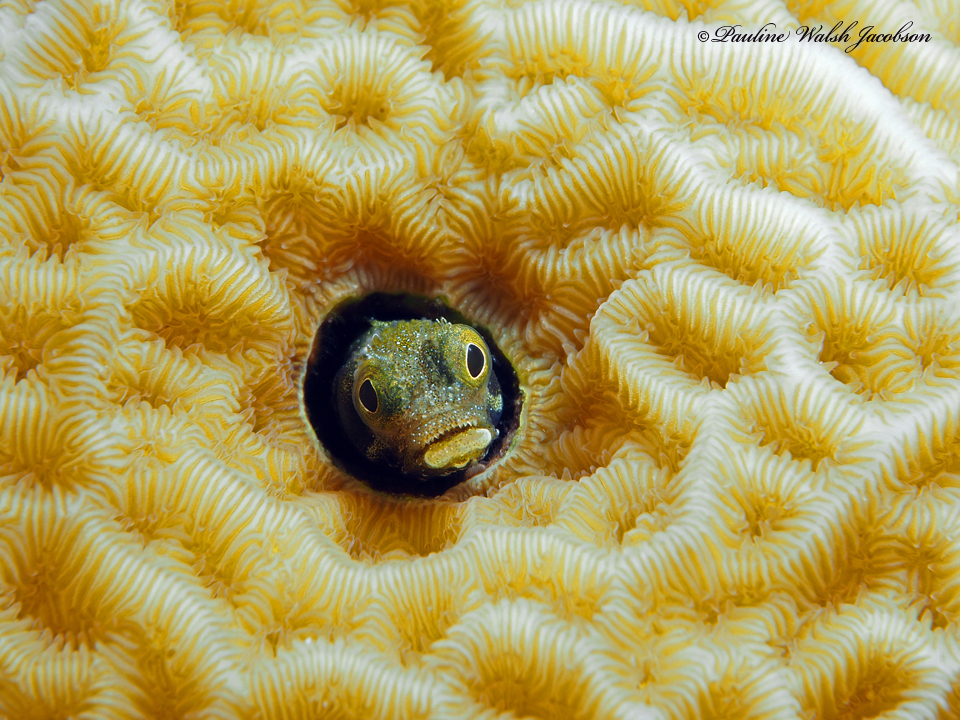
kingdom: Animalia
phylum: Chordata
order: Perciformes
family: Chaenopsidae
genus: Acanthemblemaria
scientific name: Acanthemblemaria spinosa
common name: Spinyhead blenny
